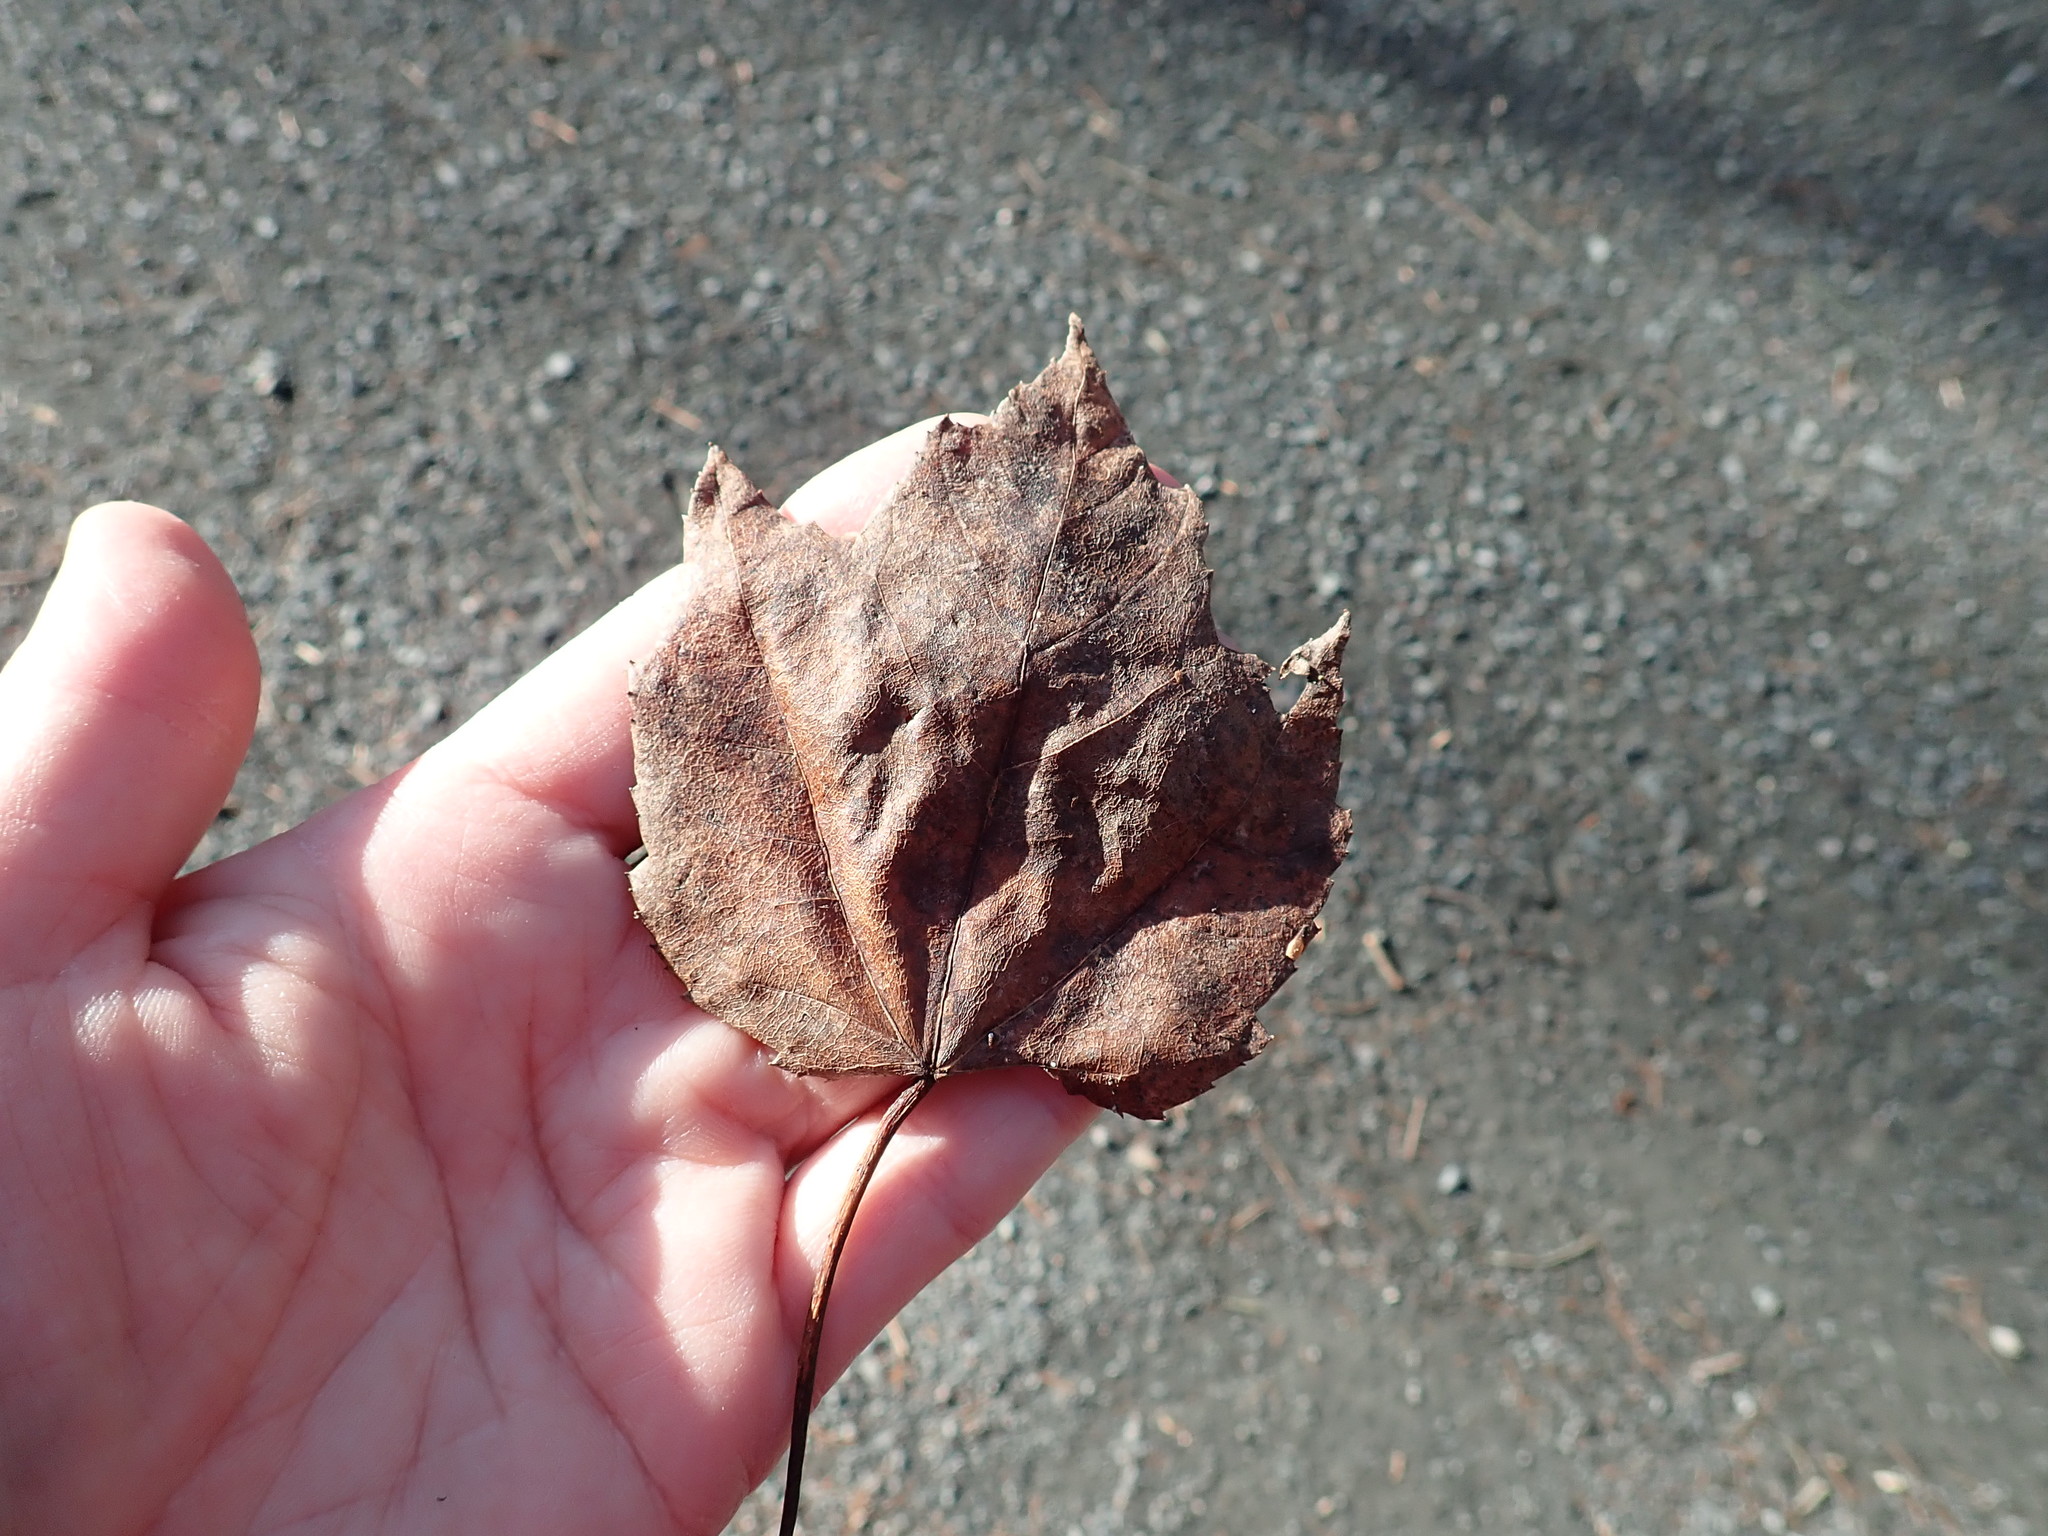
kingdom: Plantae
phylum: Tracheophyta
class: Magnoliopsida
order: Sapindales
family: Sapindaceae
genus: Acer
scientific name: Acer rubrum
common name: Red maple
